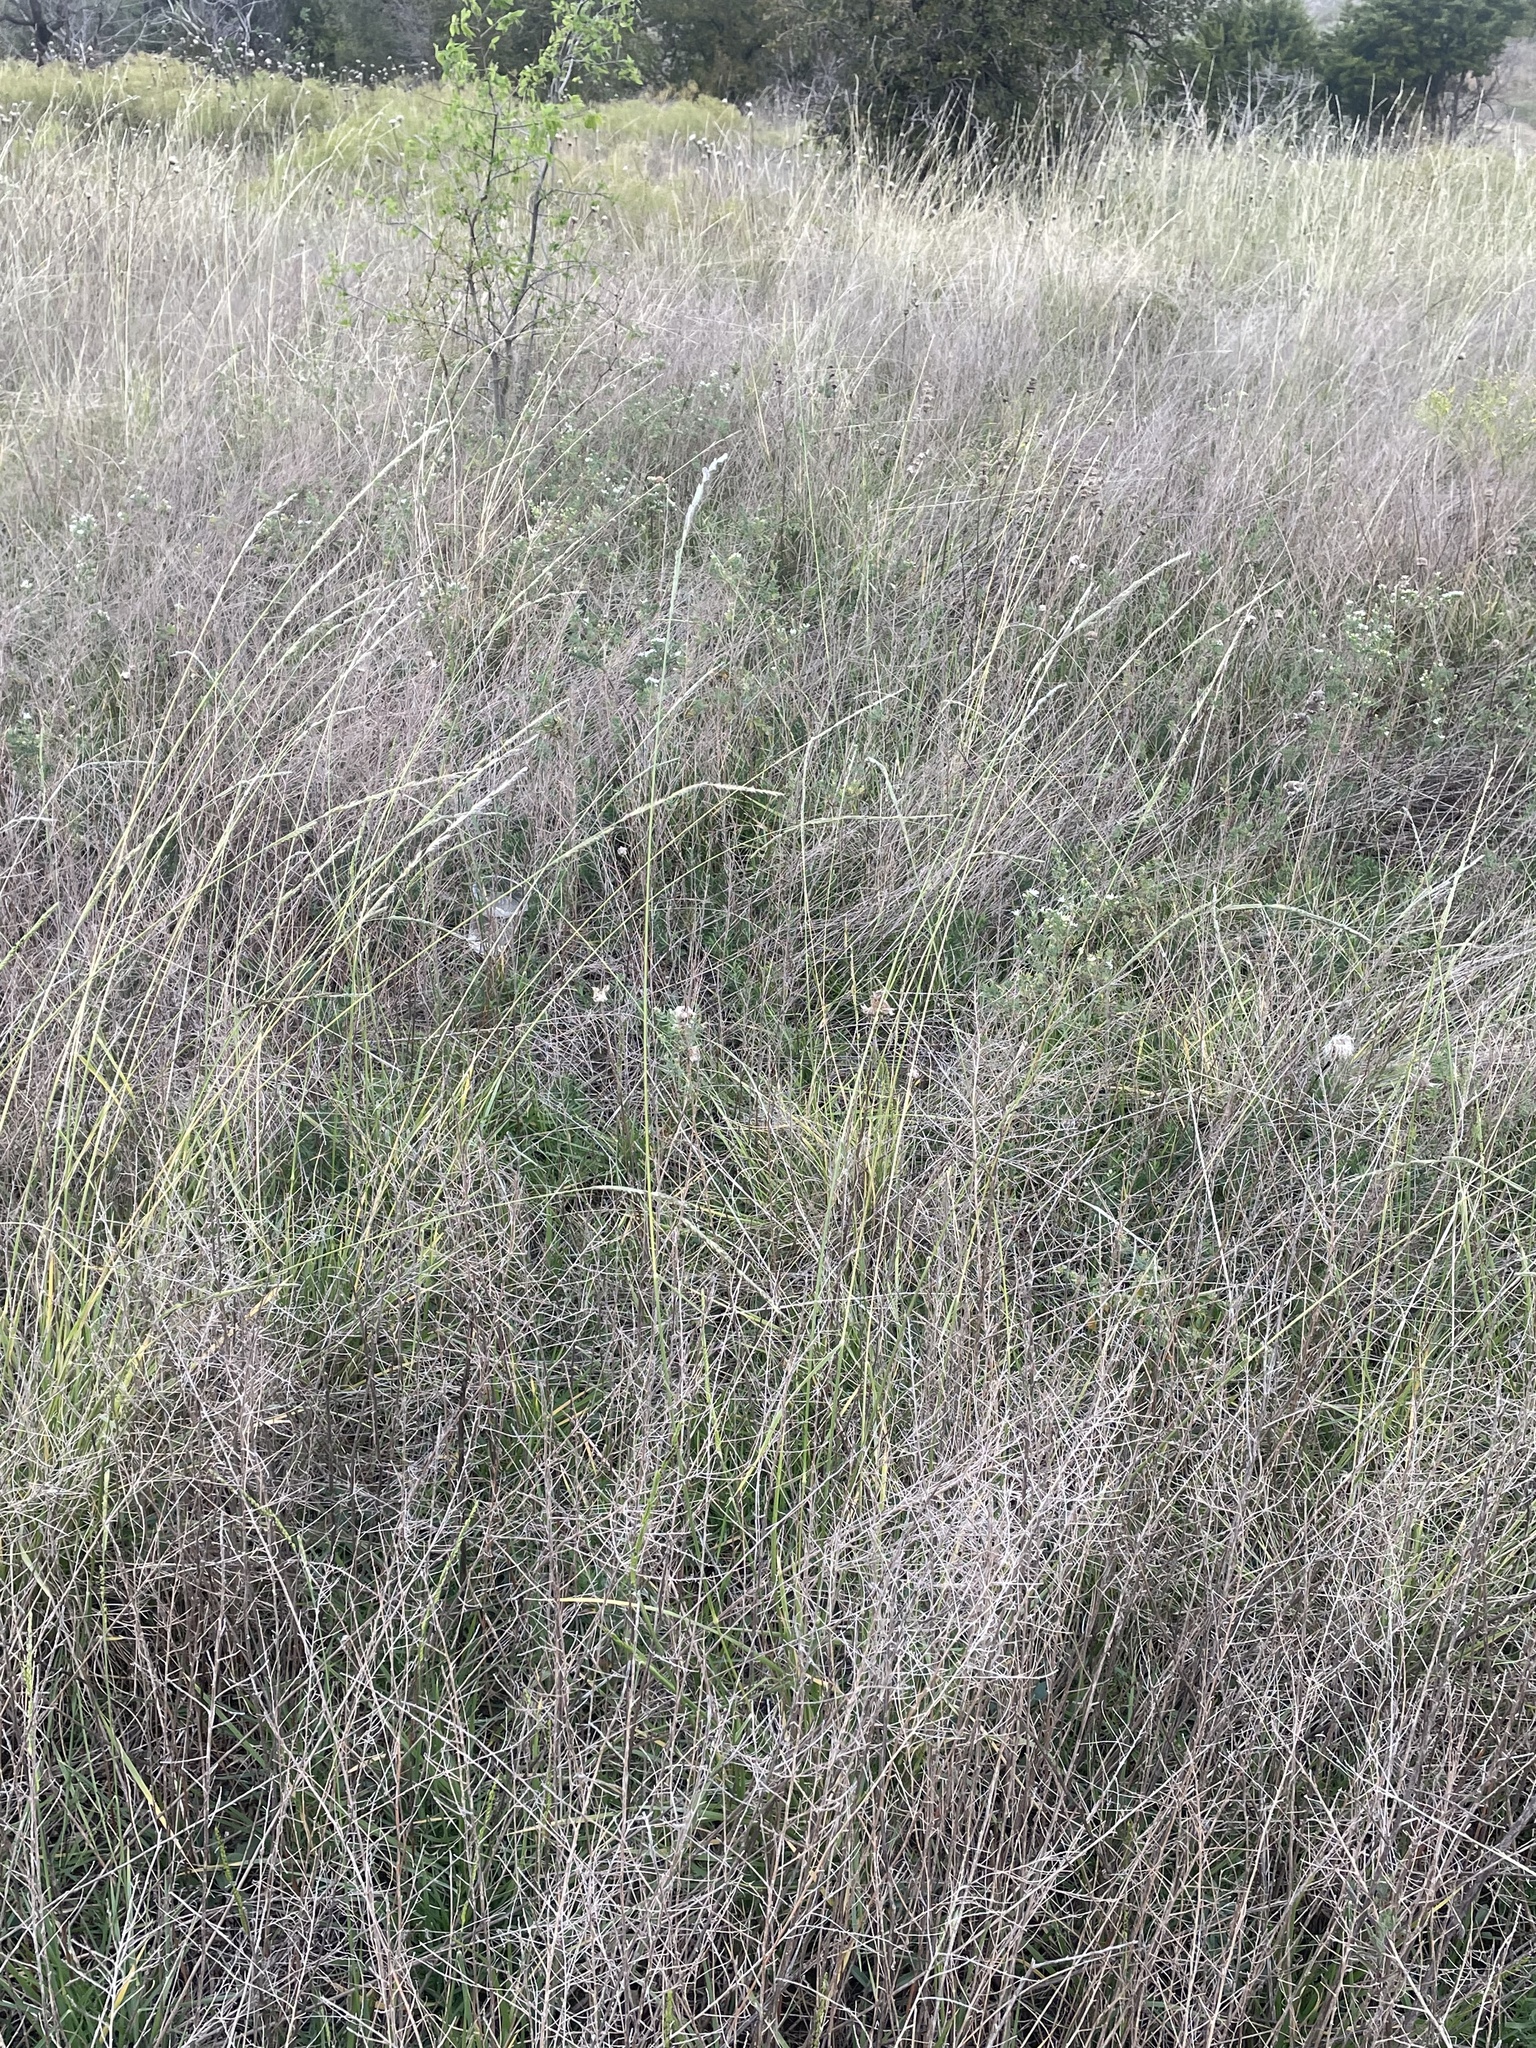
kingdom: Plantae
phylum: Tracheophyta
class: Liliopsida
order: Poales
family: Poaceae
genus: Eriochloa
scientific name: Eriochloa sericea
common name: Texas cup grass
